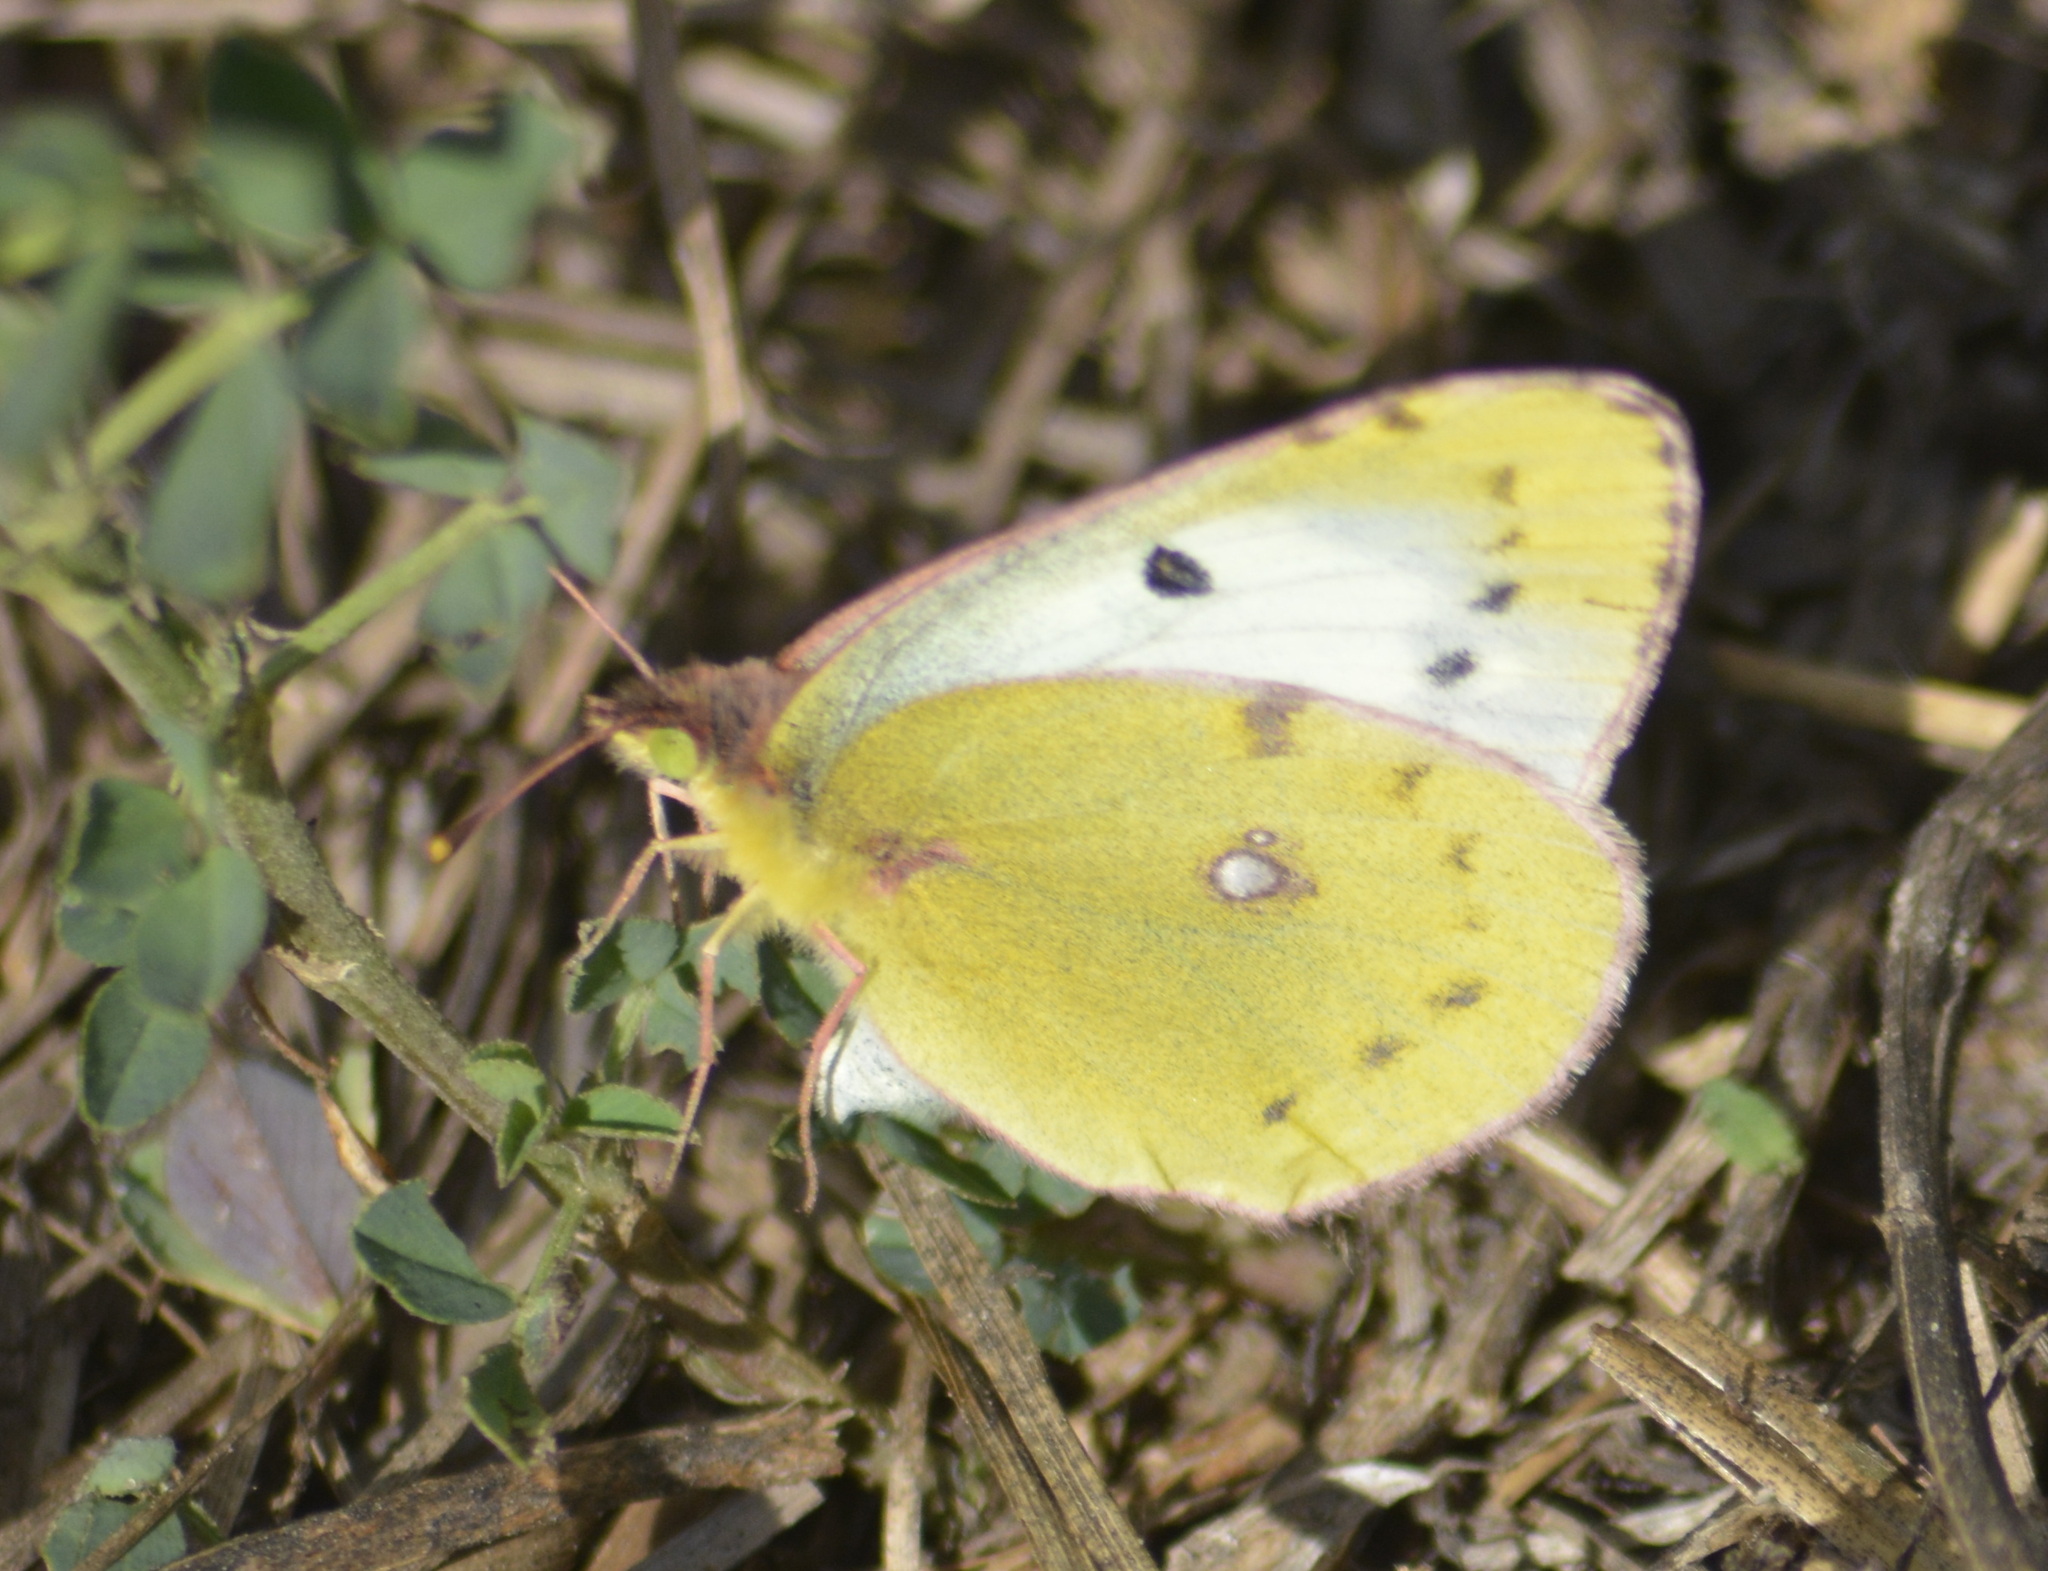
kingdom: Animalia
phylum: Arthropoda
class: Insecta
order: Lepidoptera
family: Pieridae
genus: Colias
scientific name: Colias hyale
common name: Pale clouded yellow
